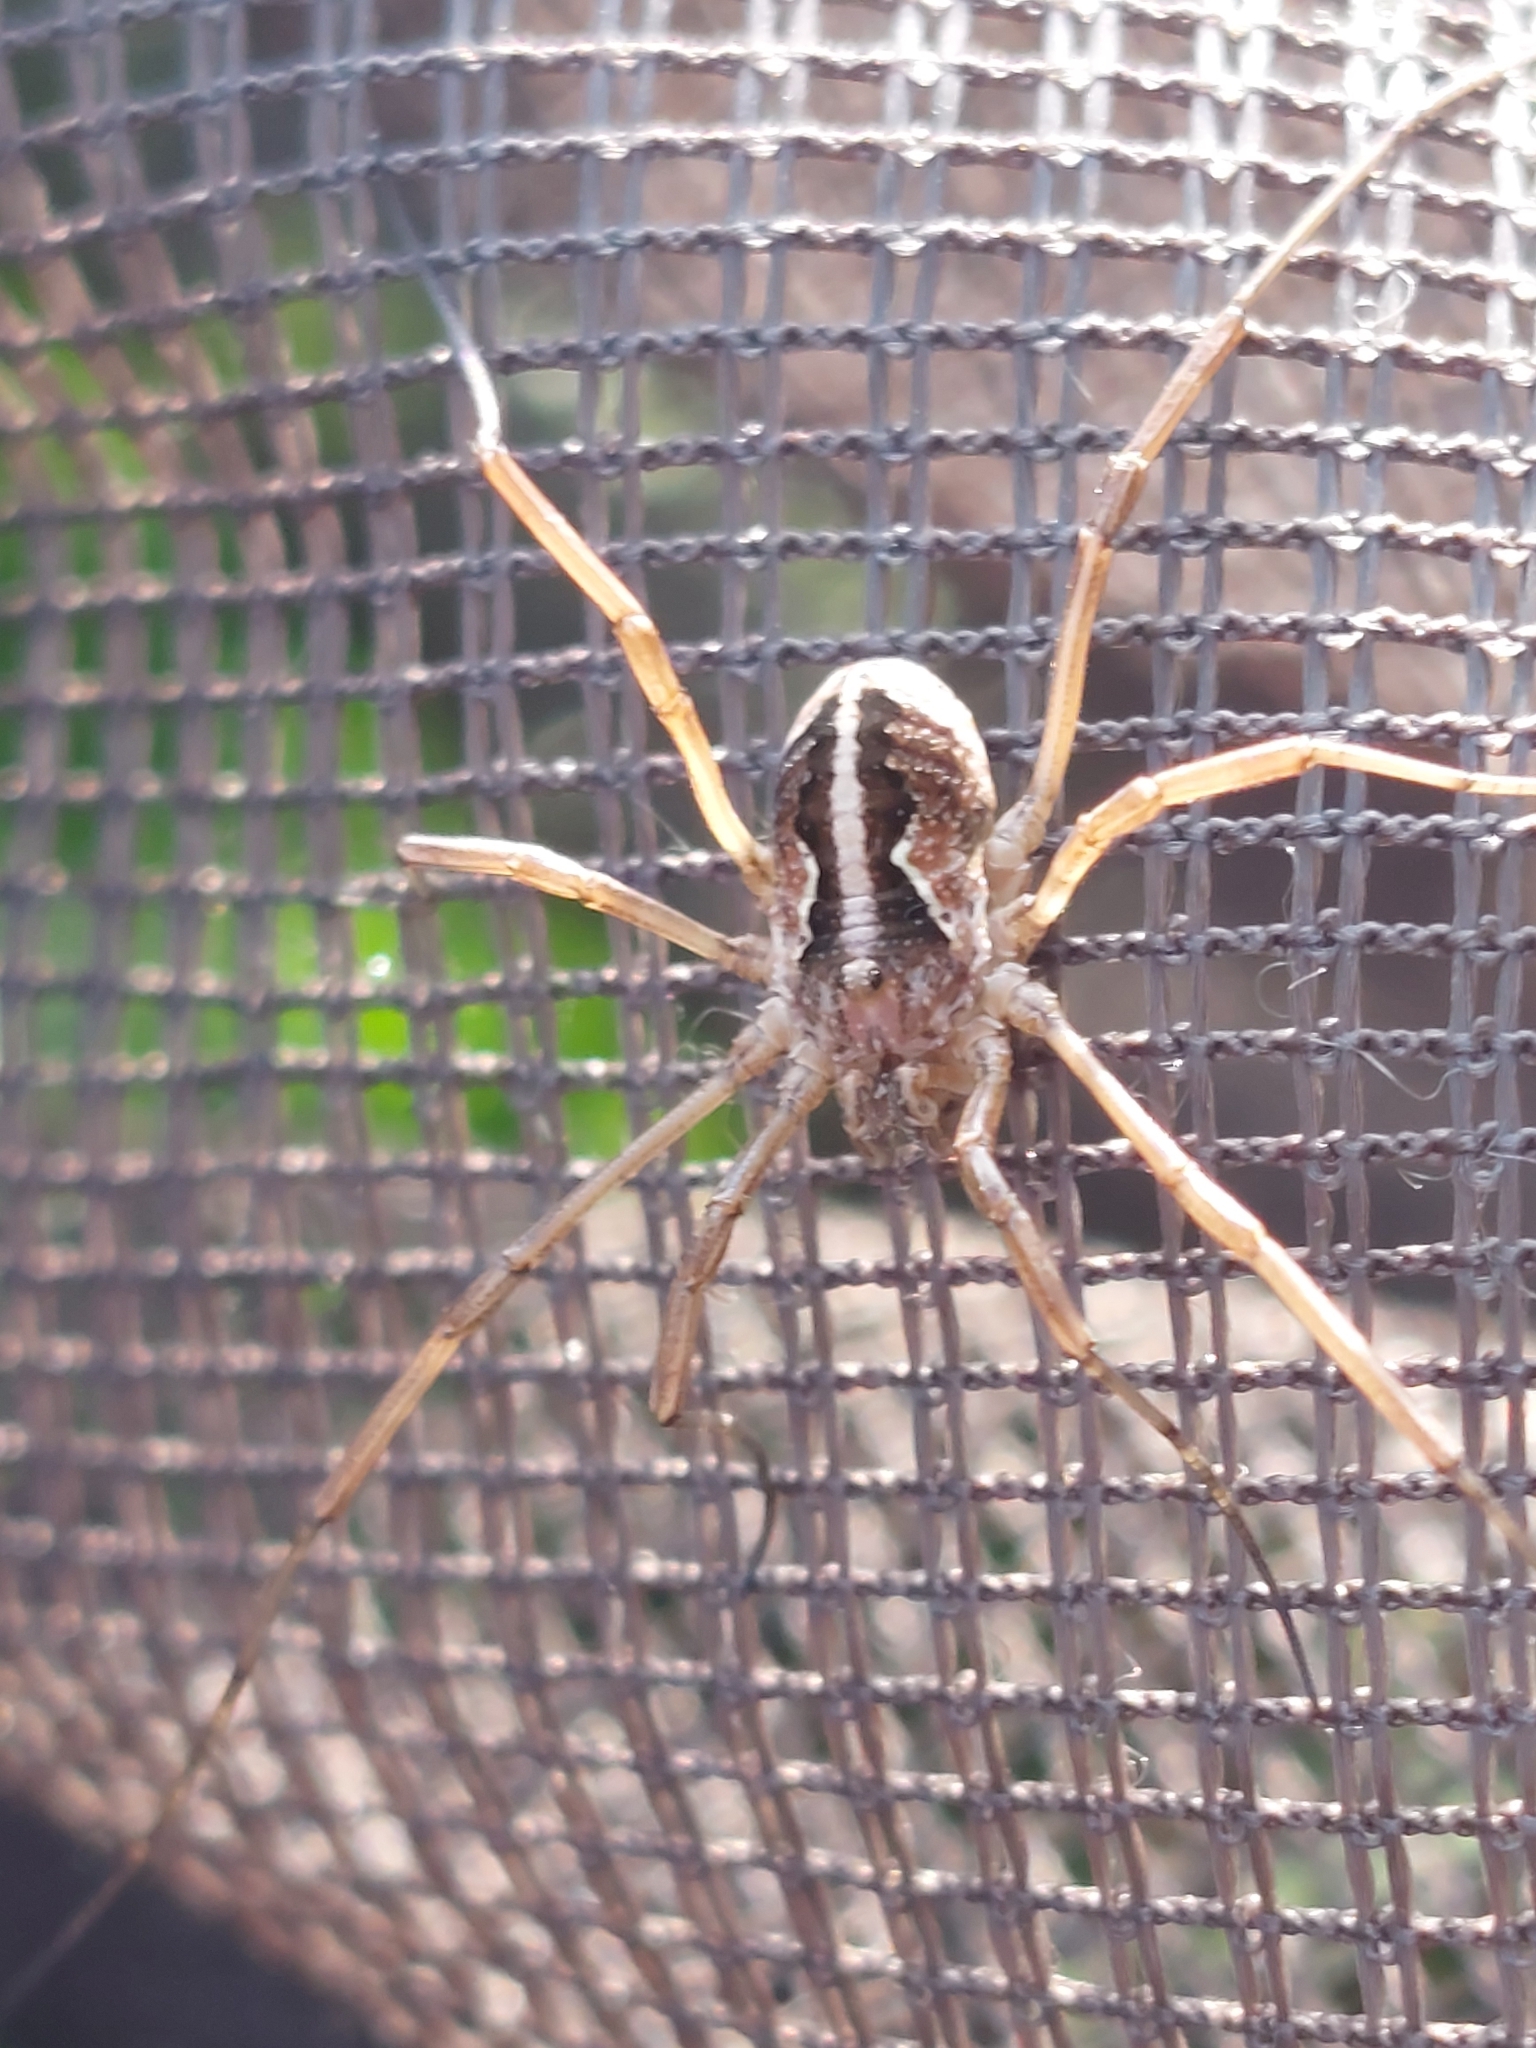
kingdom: Animalia
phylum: Arthropoda
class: Arachnida
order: Opiliones
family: Phalangiidae
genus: Mitopus
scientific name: Mitopus morio
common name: Saddleback harvestman
